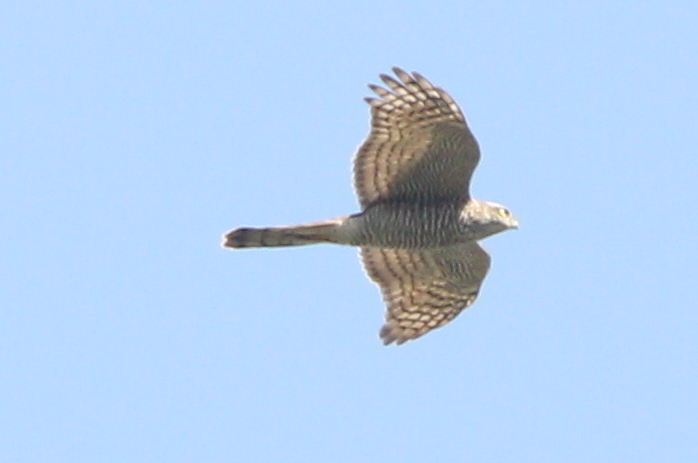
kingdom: Animalia
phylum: Chordata
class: Aves
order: Accipitriformes
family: Accipitridae
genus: Accipiter
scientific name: Accipiter nisus
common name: Eurasian sparrowhawk
